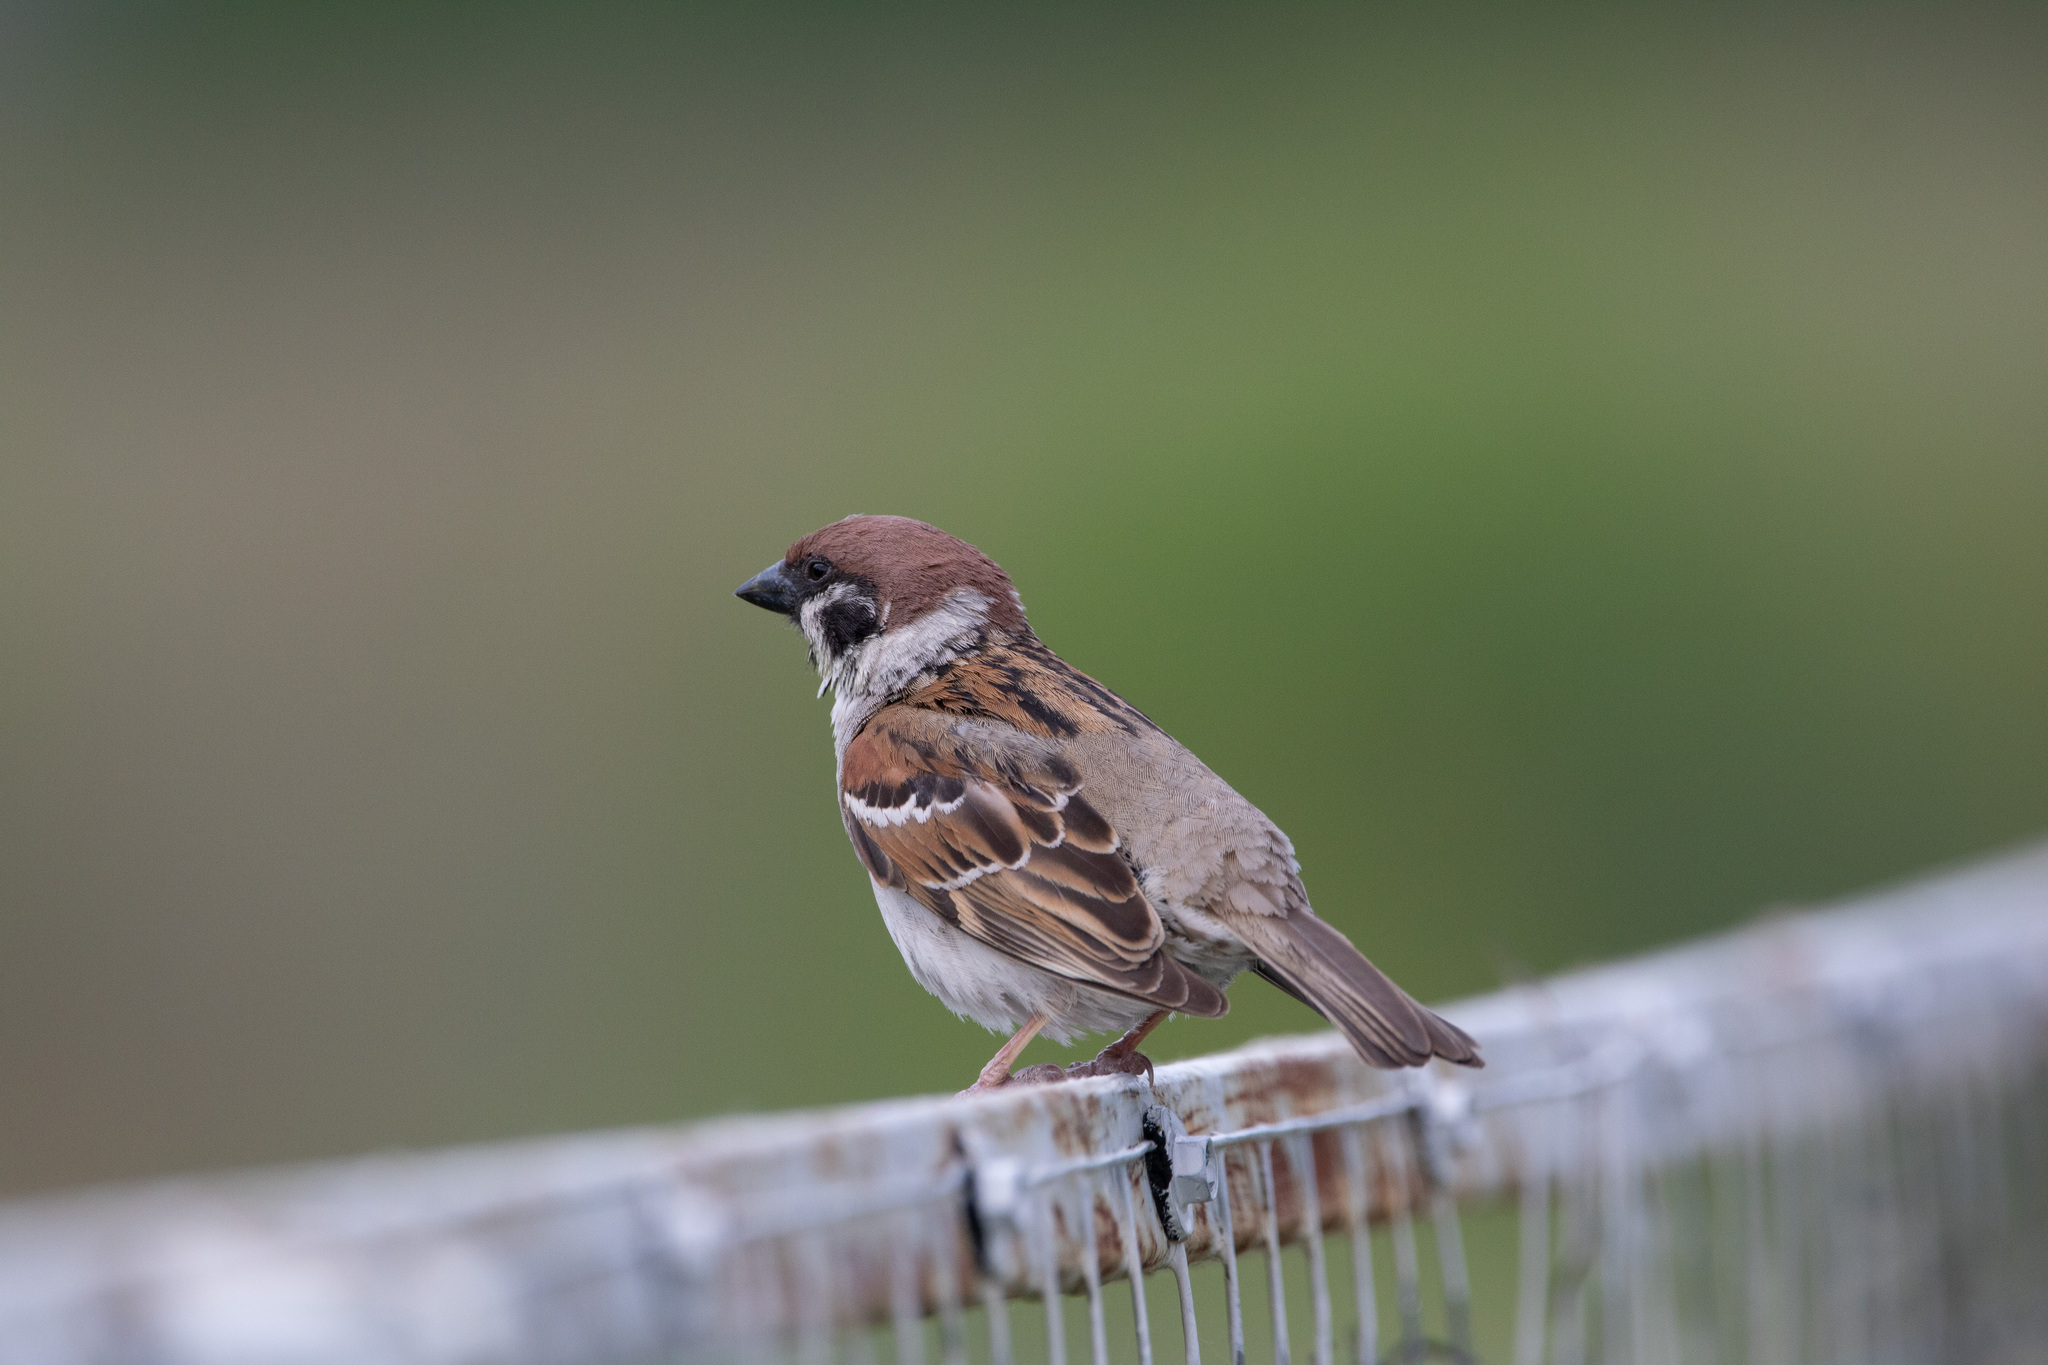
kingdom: Animalia
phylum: Chordata
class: Aves
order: Passeriformes
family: Passeridae
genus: Passer
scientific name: Passer montanus
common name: Eurasian tree sparrow
